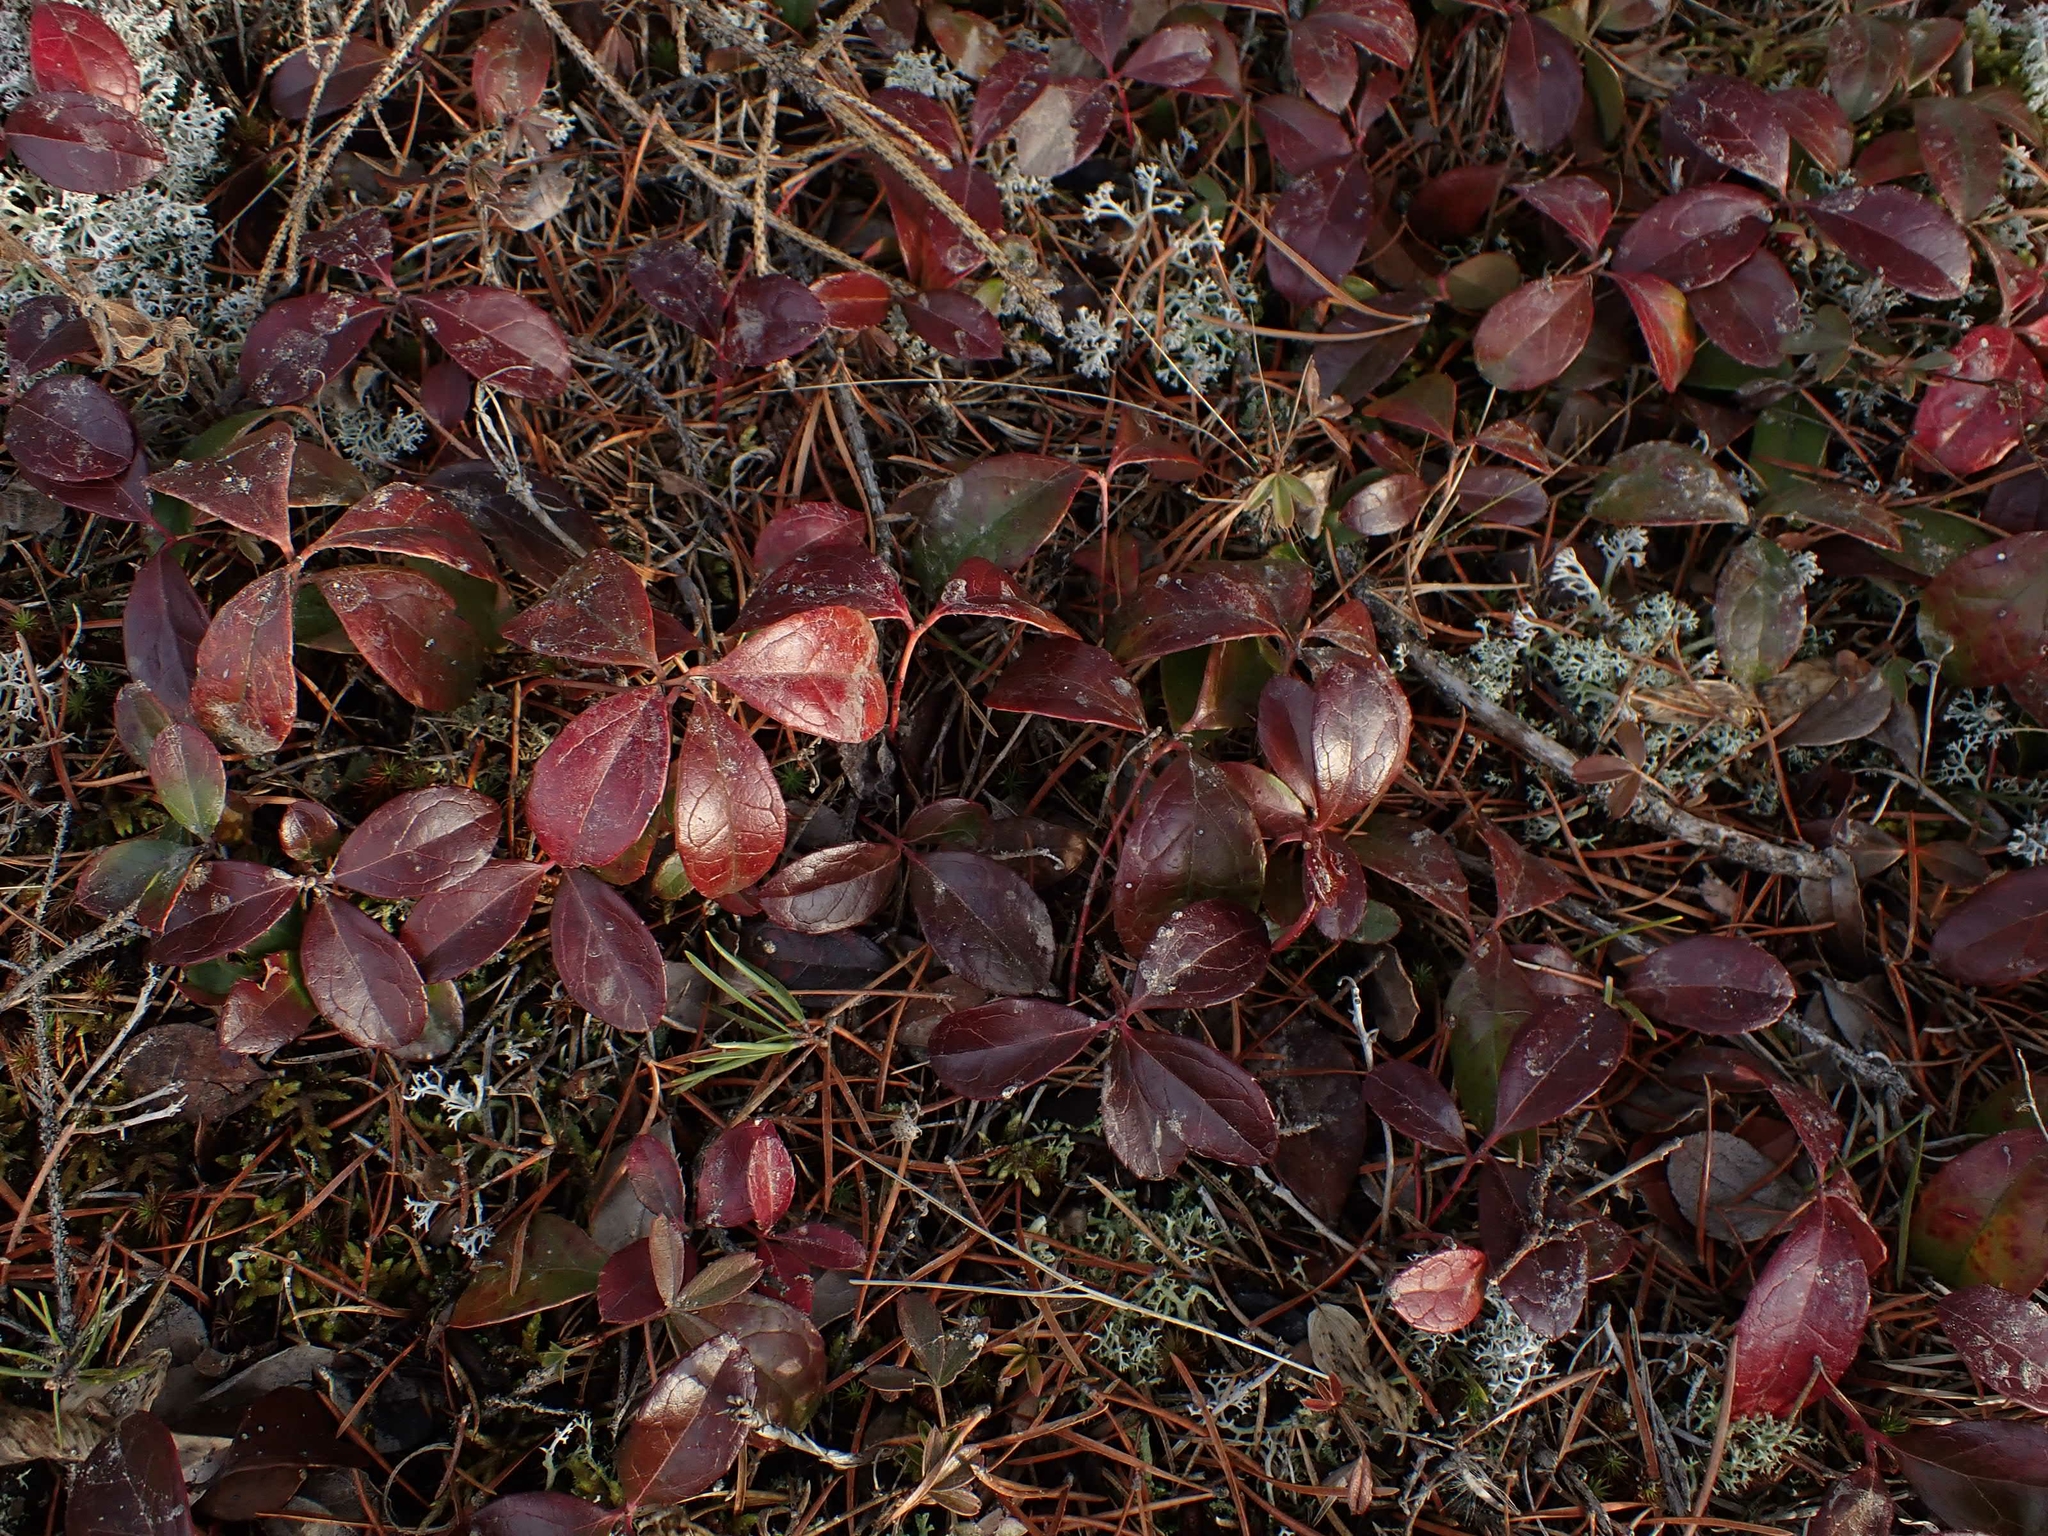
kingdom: Plantae
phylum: Tracheophyta
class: Magnoliopsida
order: Ericales
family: Ericaceae
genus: Gaultheria
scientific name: Gaultheria procumbens
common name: Checkerberry
